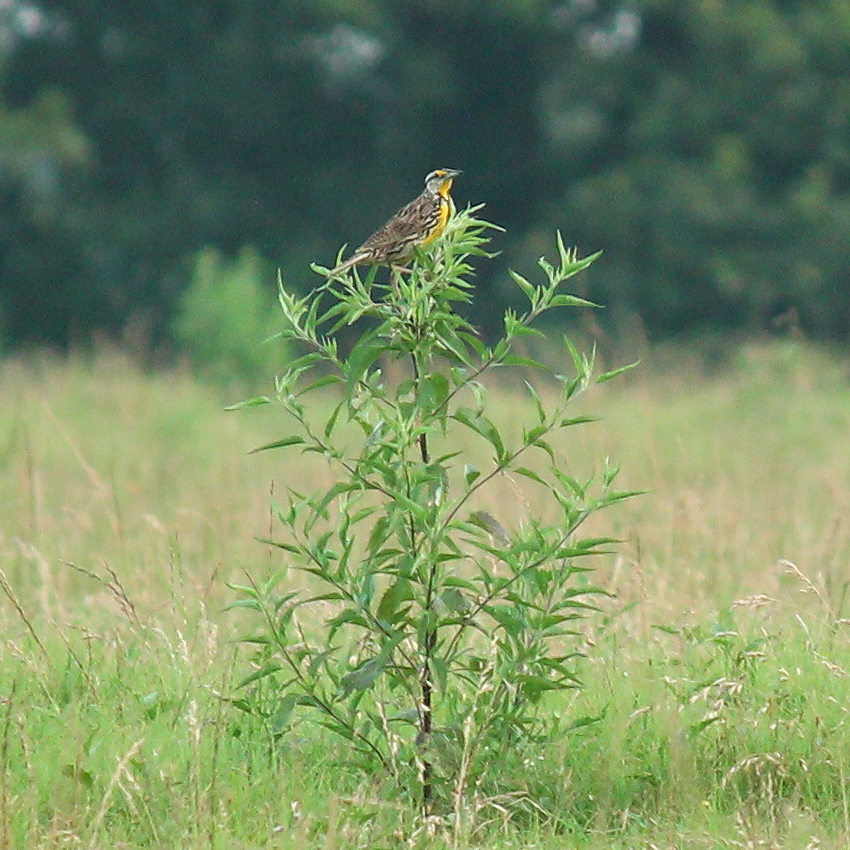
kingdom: Animalia
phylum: Chordata
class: Aves
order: Passeriformes
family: Icteridae
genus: Sturnella
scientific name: Sturnella magna
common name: Eastern meadowlark
